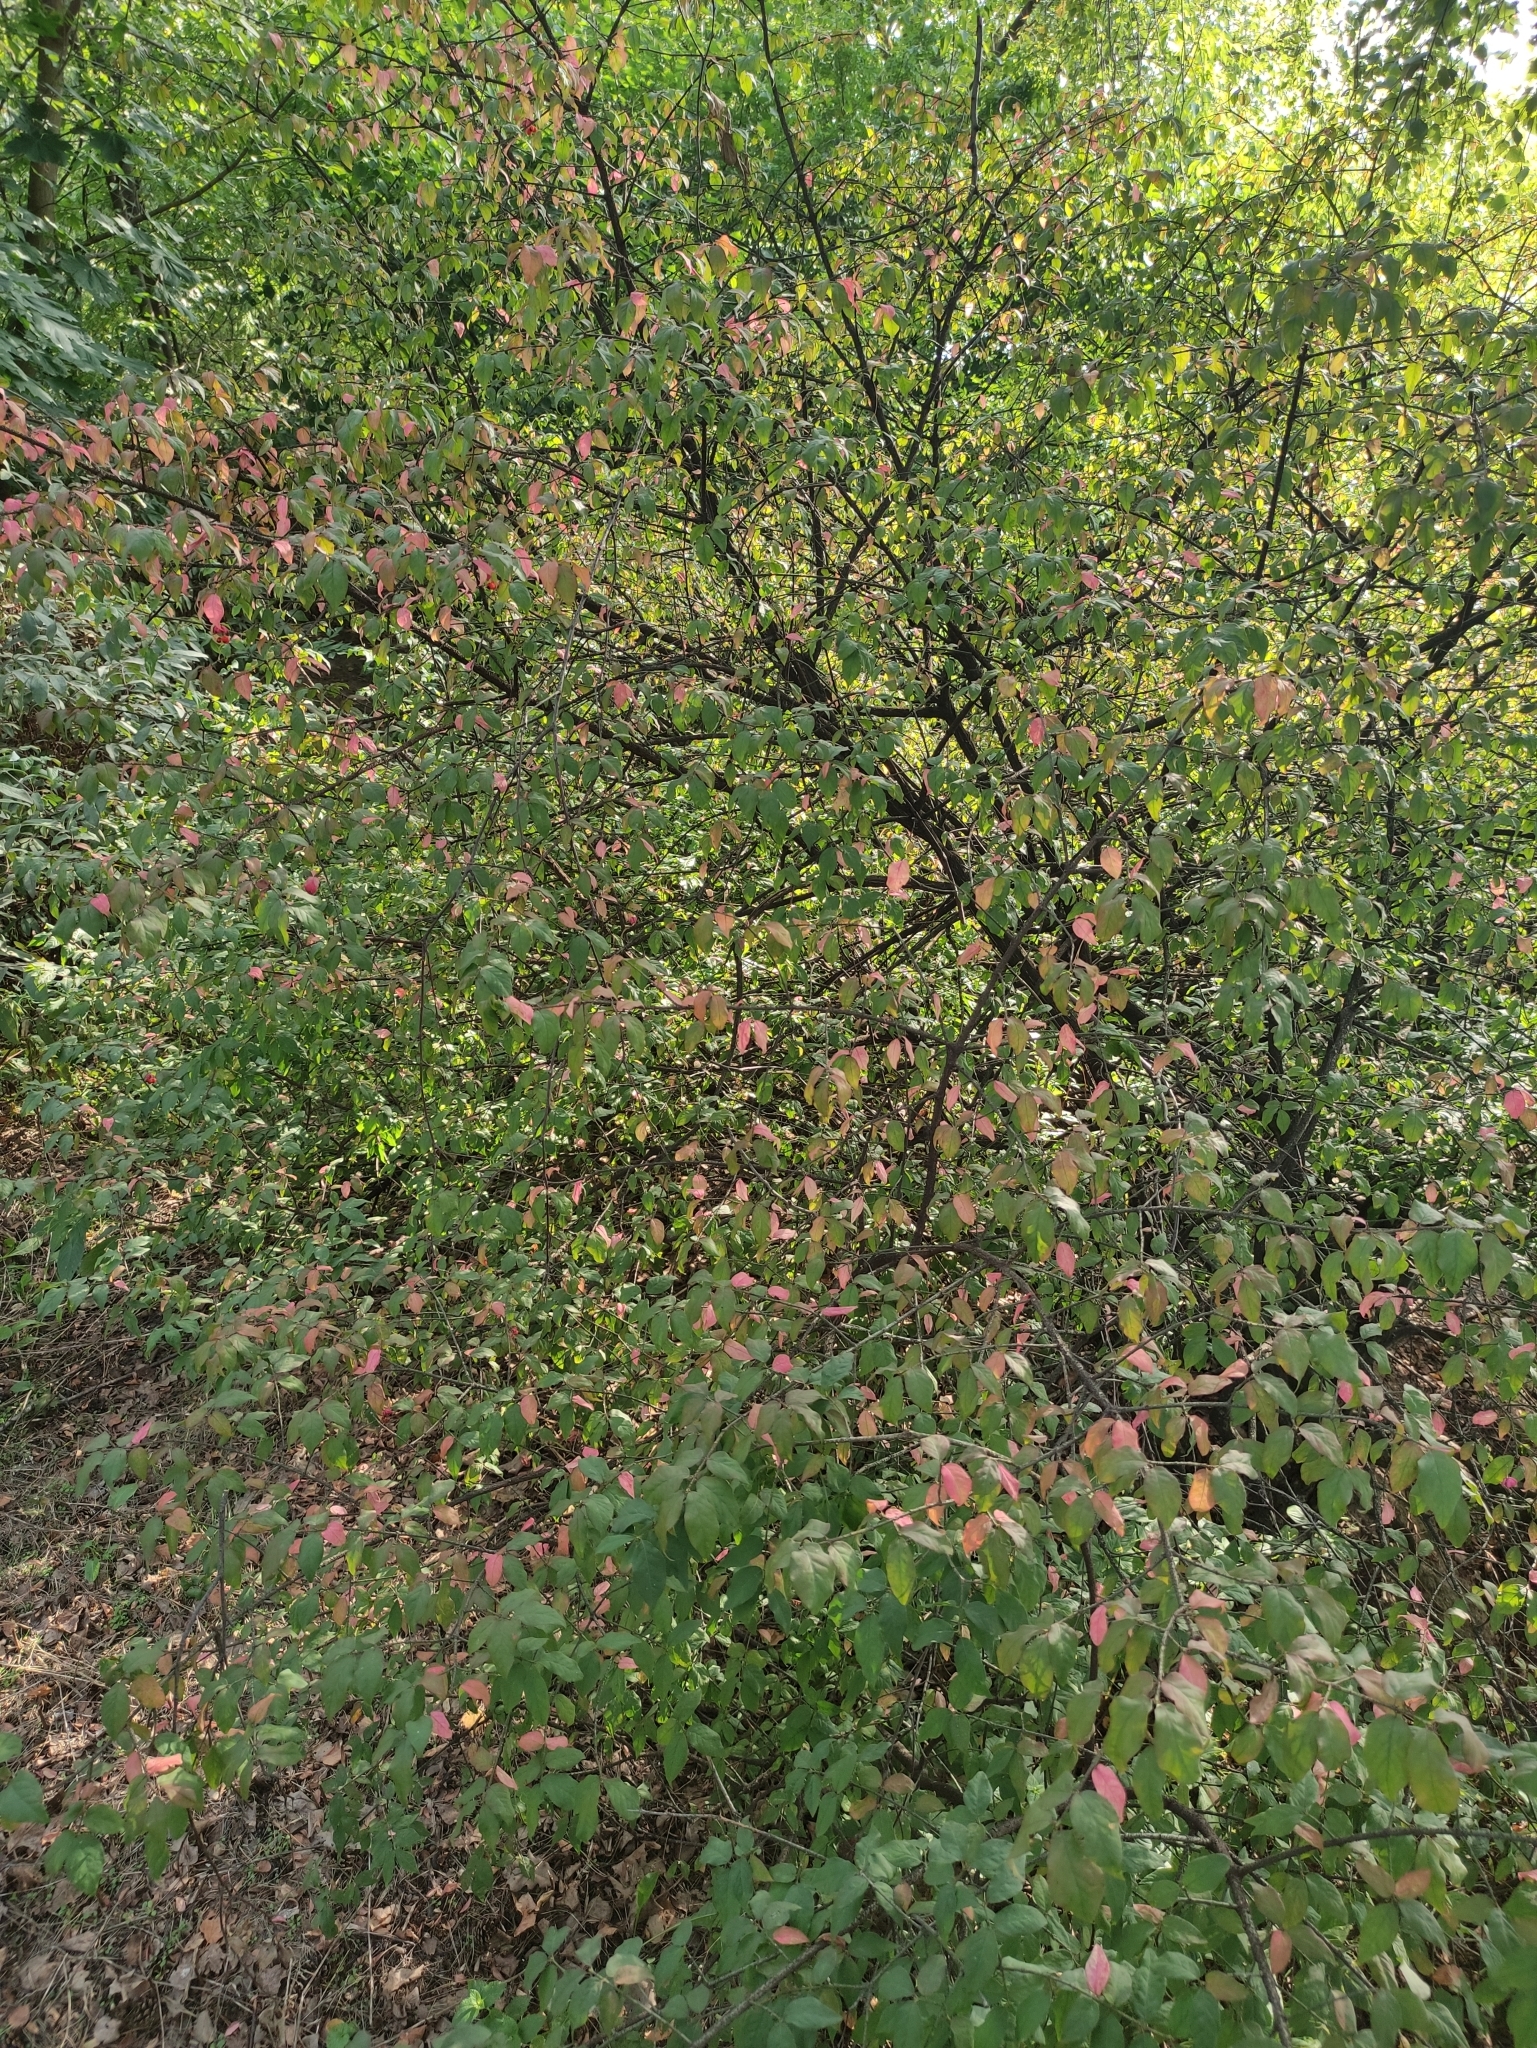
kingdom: Plantae
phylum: Tracheophyta
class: Magnoliopsida
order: Celastrales
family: Celastraceae
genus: Euonymus
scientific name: Euonymus verrucosus
